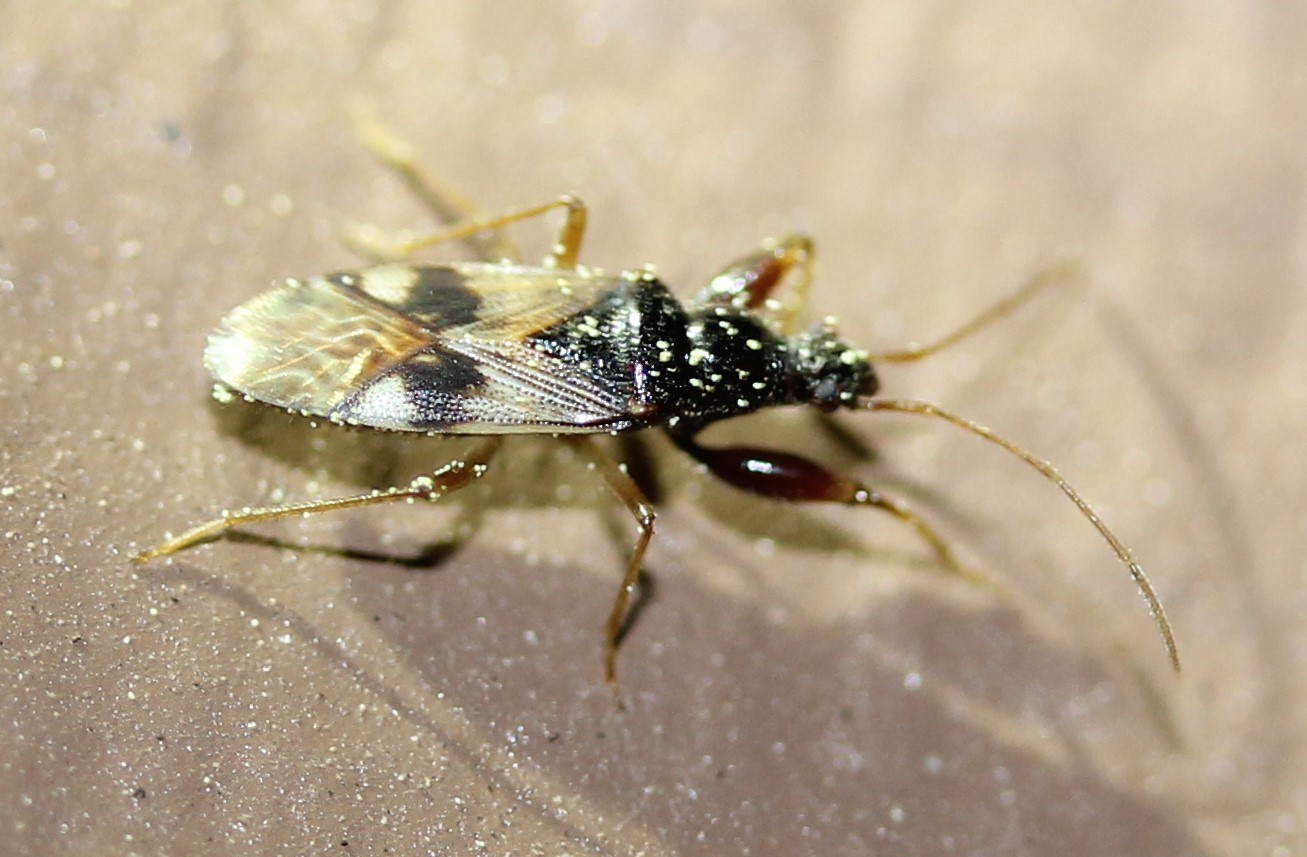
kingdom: Animalia
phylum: Arthropoda
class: Insecta
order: Hemiptera
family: Rhyparochromidae
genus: Pseudopamera
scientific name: Pseudopamera nitidula
